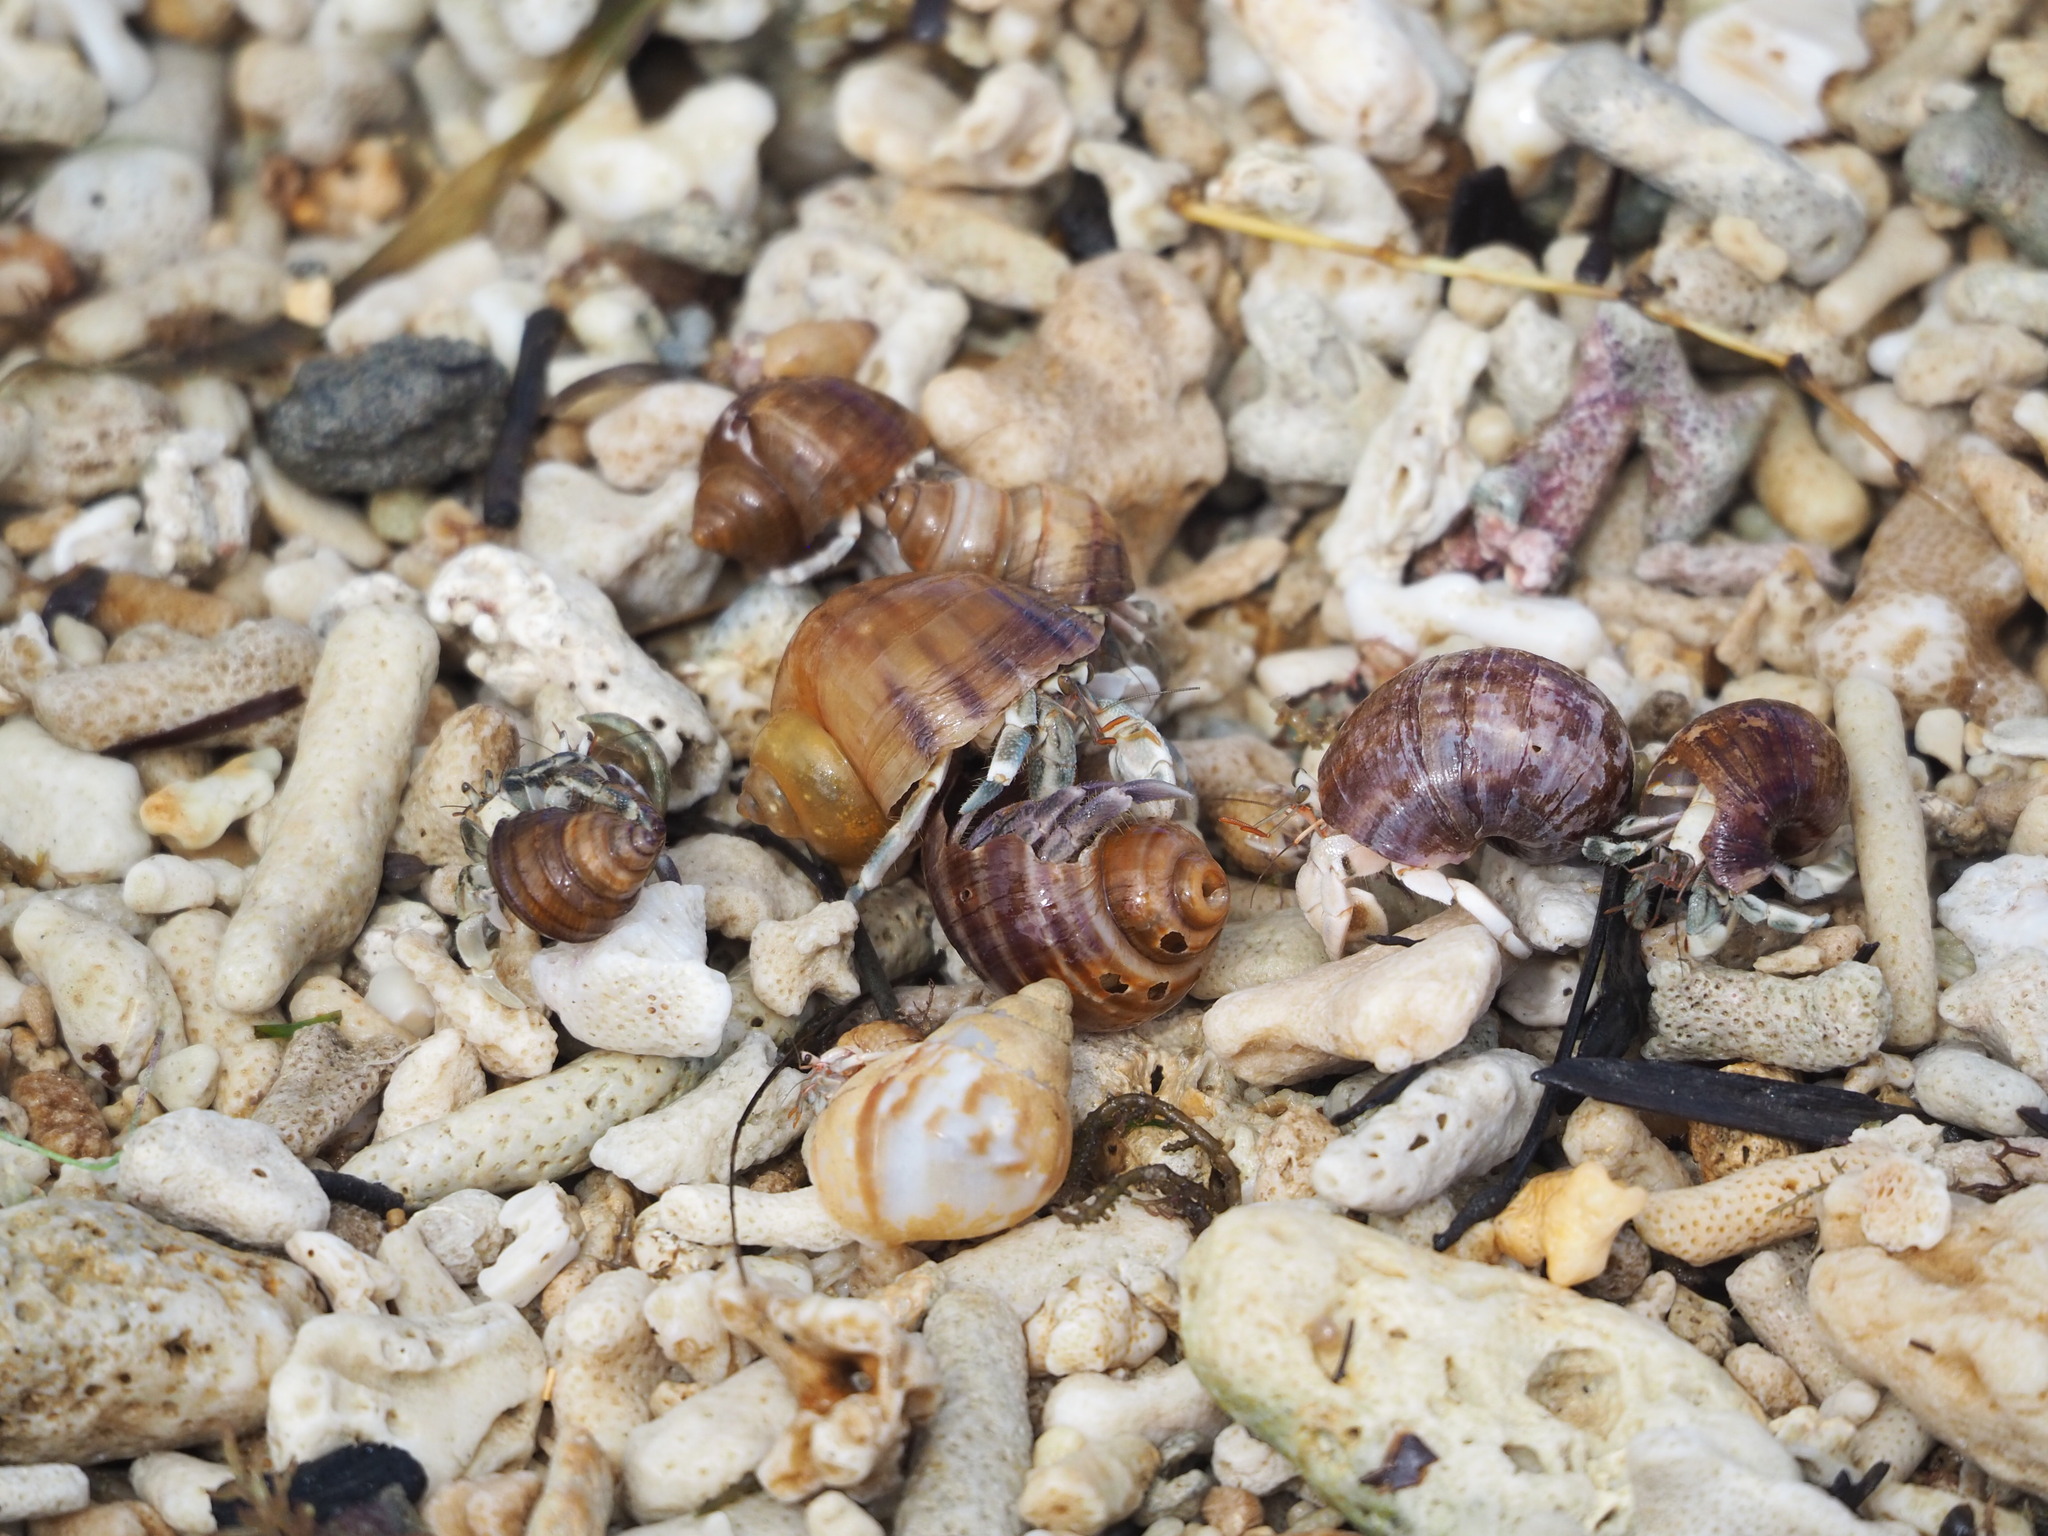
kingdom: Animalia
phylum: Arthropoda
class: Malacostraca
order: Decapoda
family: Coenobitidae
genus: Coenobita
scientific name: Coenobita rugosus
